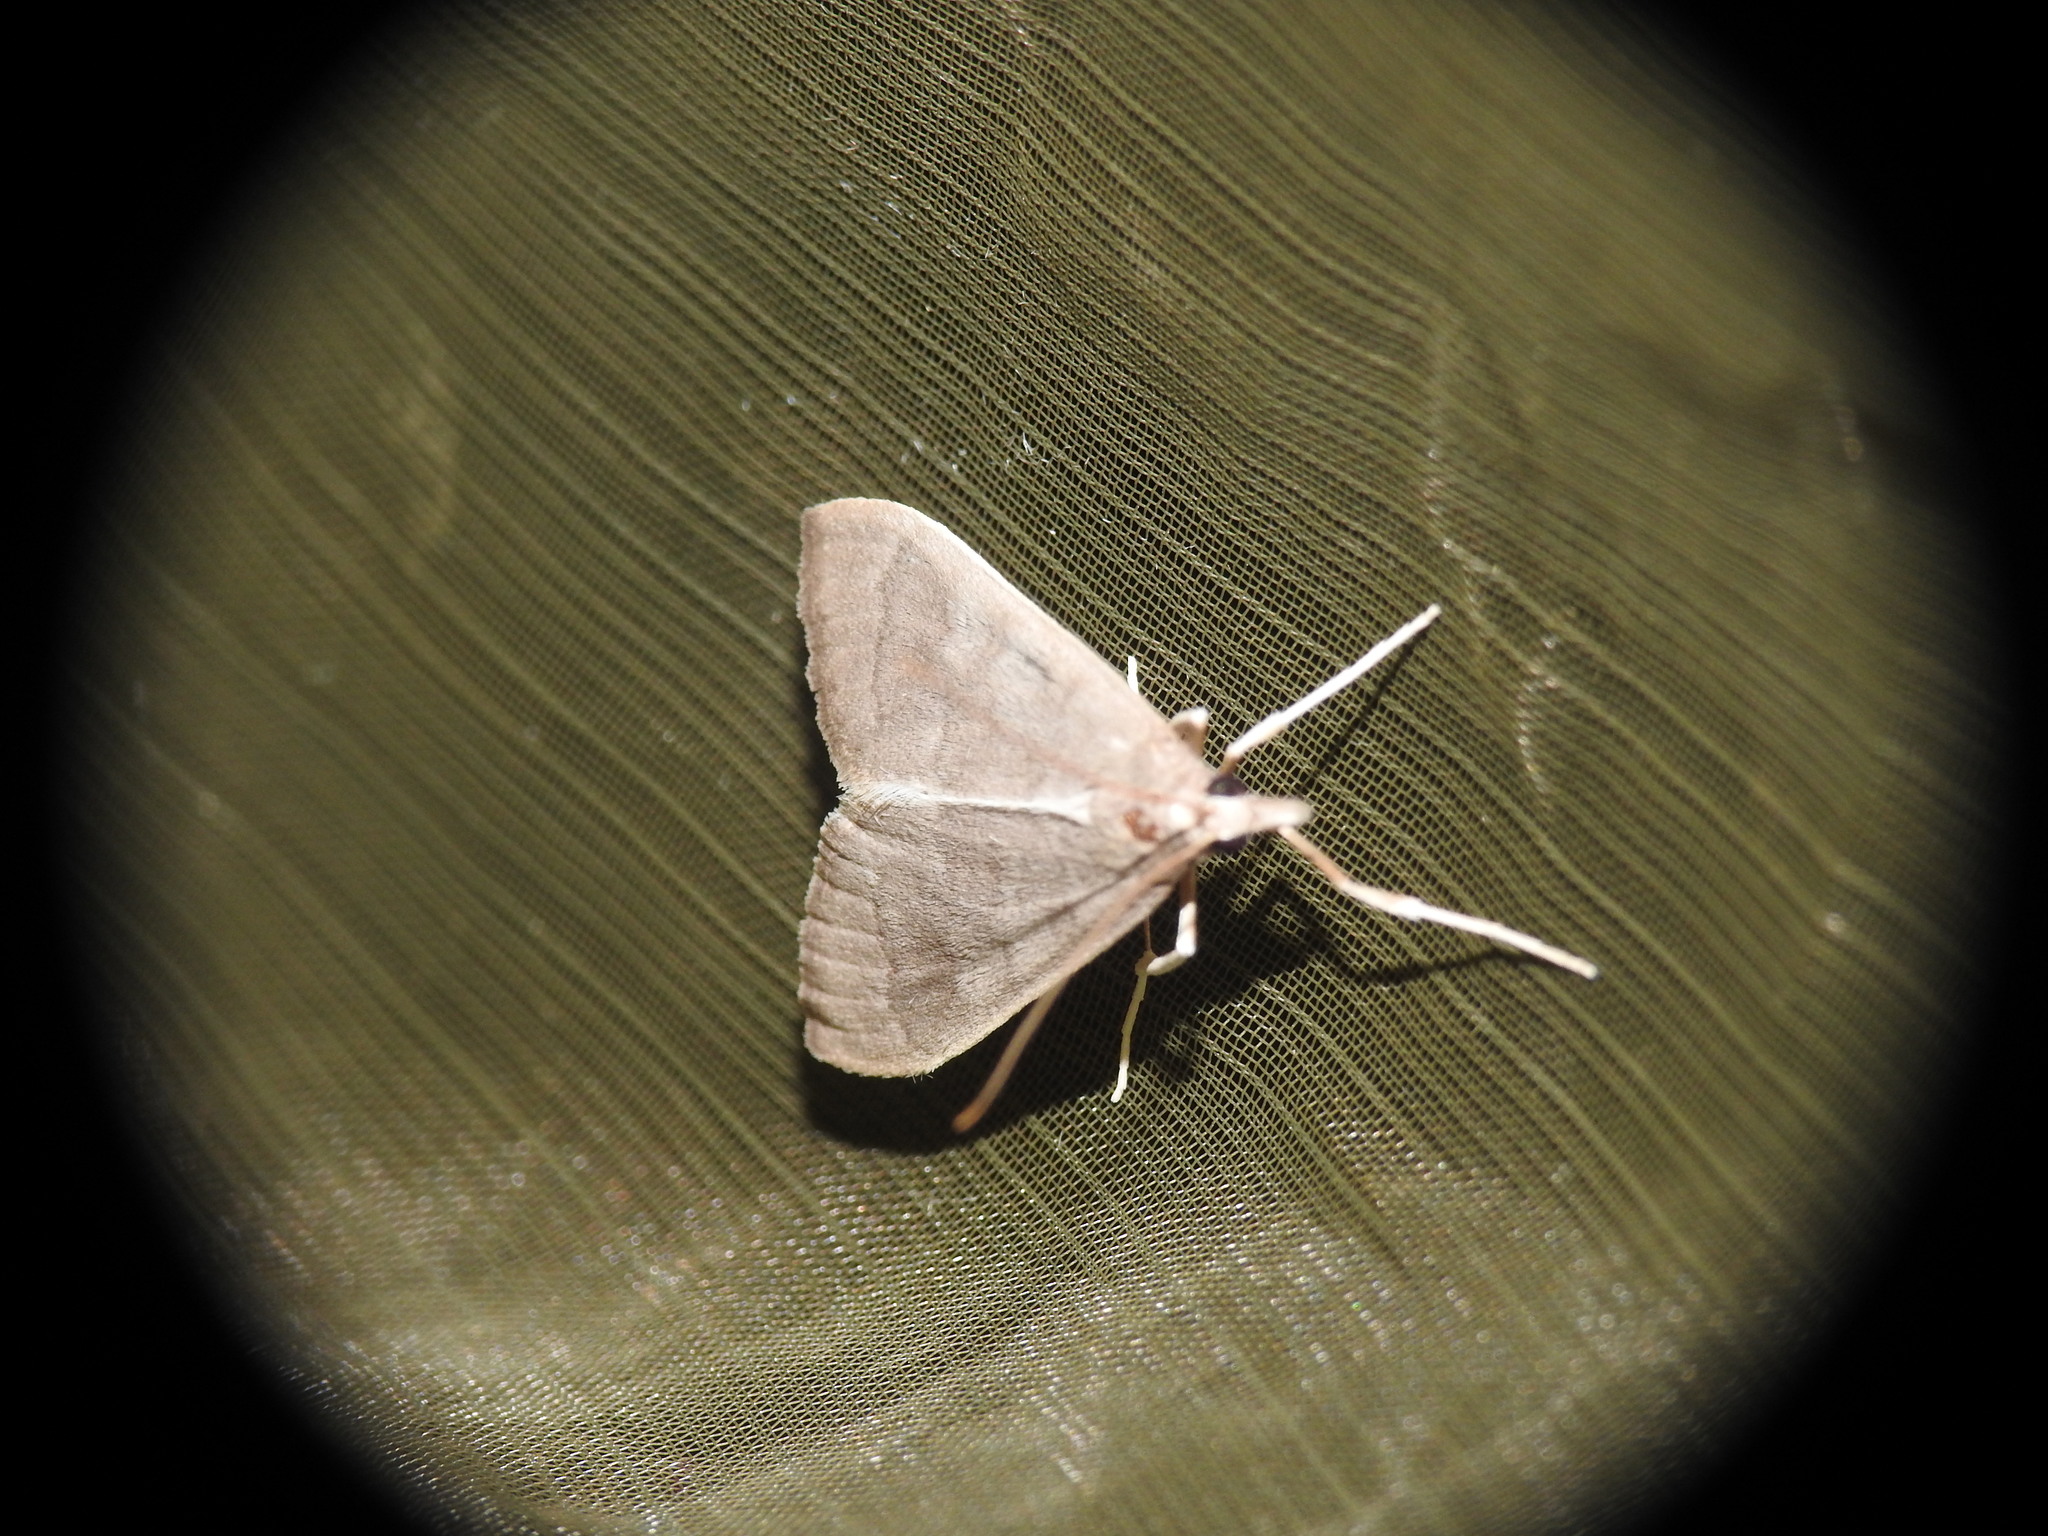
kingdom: Animalia
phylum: Arthropoda
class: Insecta
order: Lepidoptera
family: Crambidae
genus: Mecyna
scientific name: Mecyna asinalis
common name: Coastal pearl
